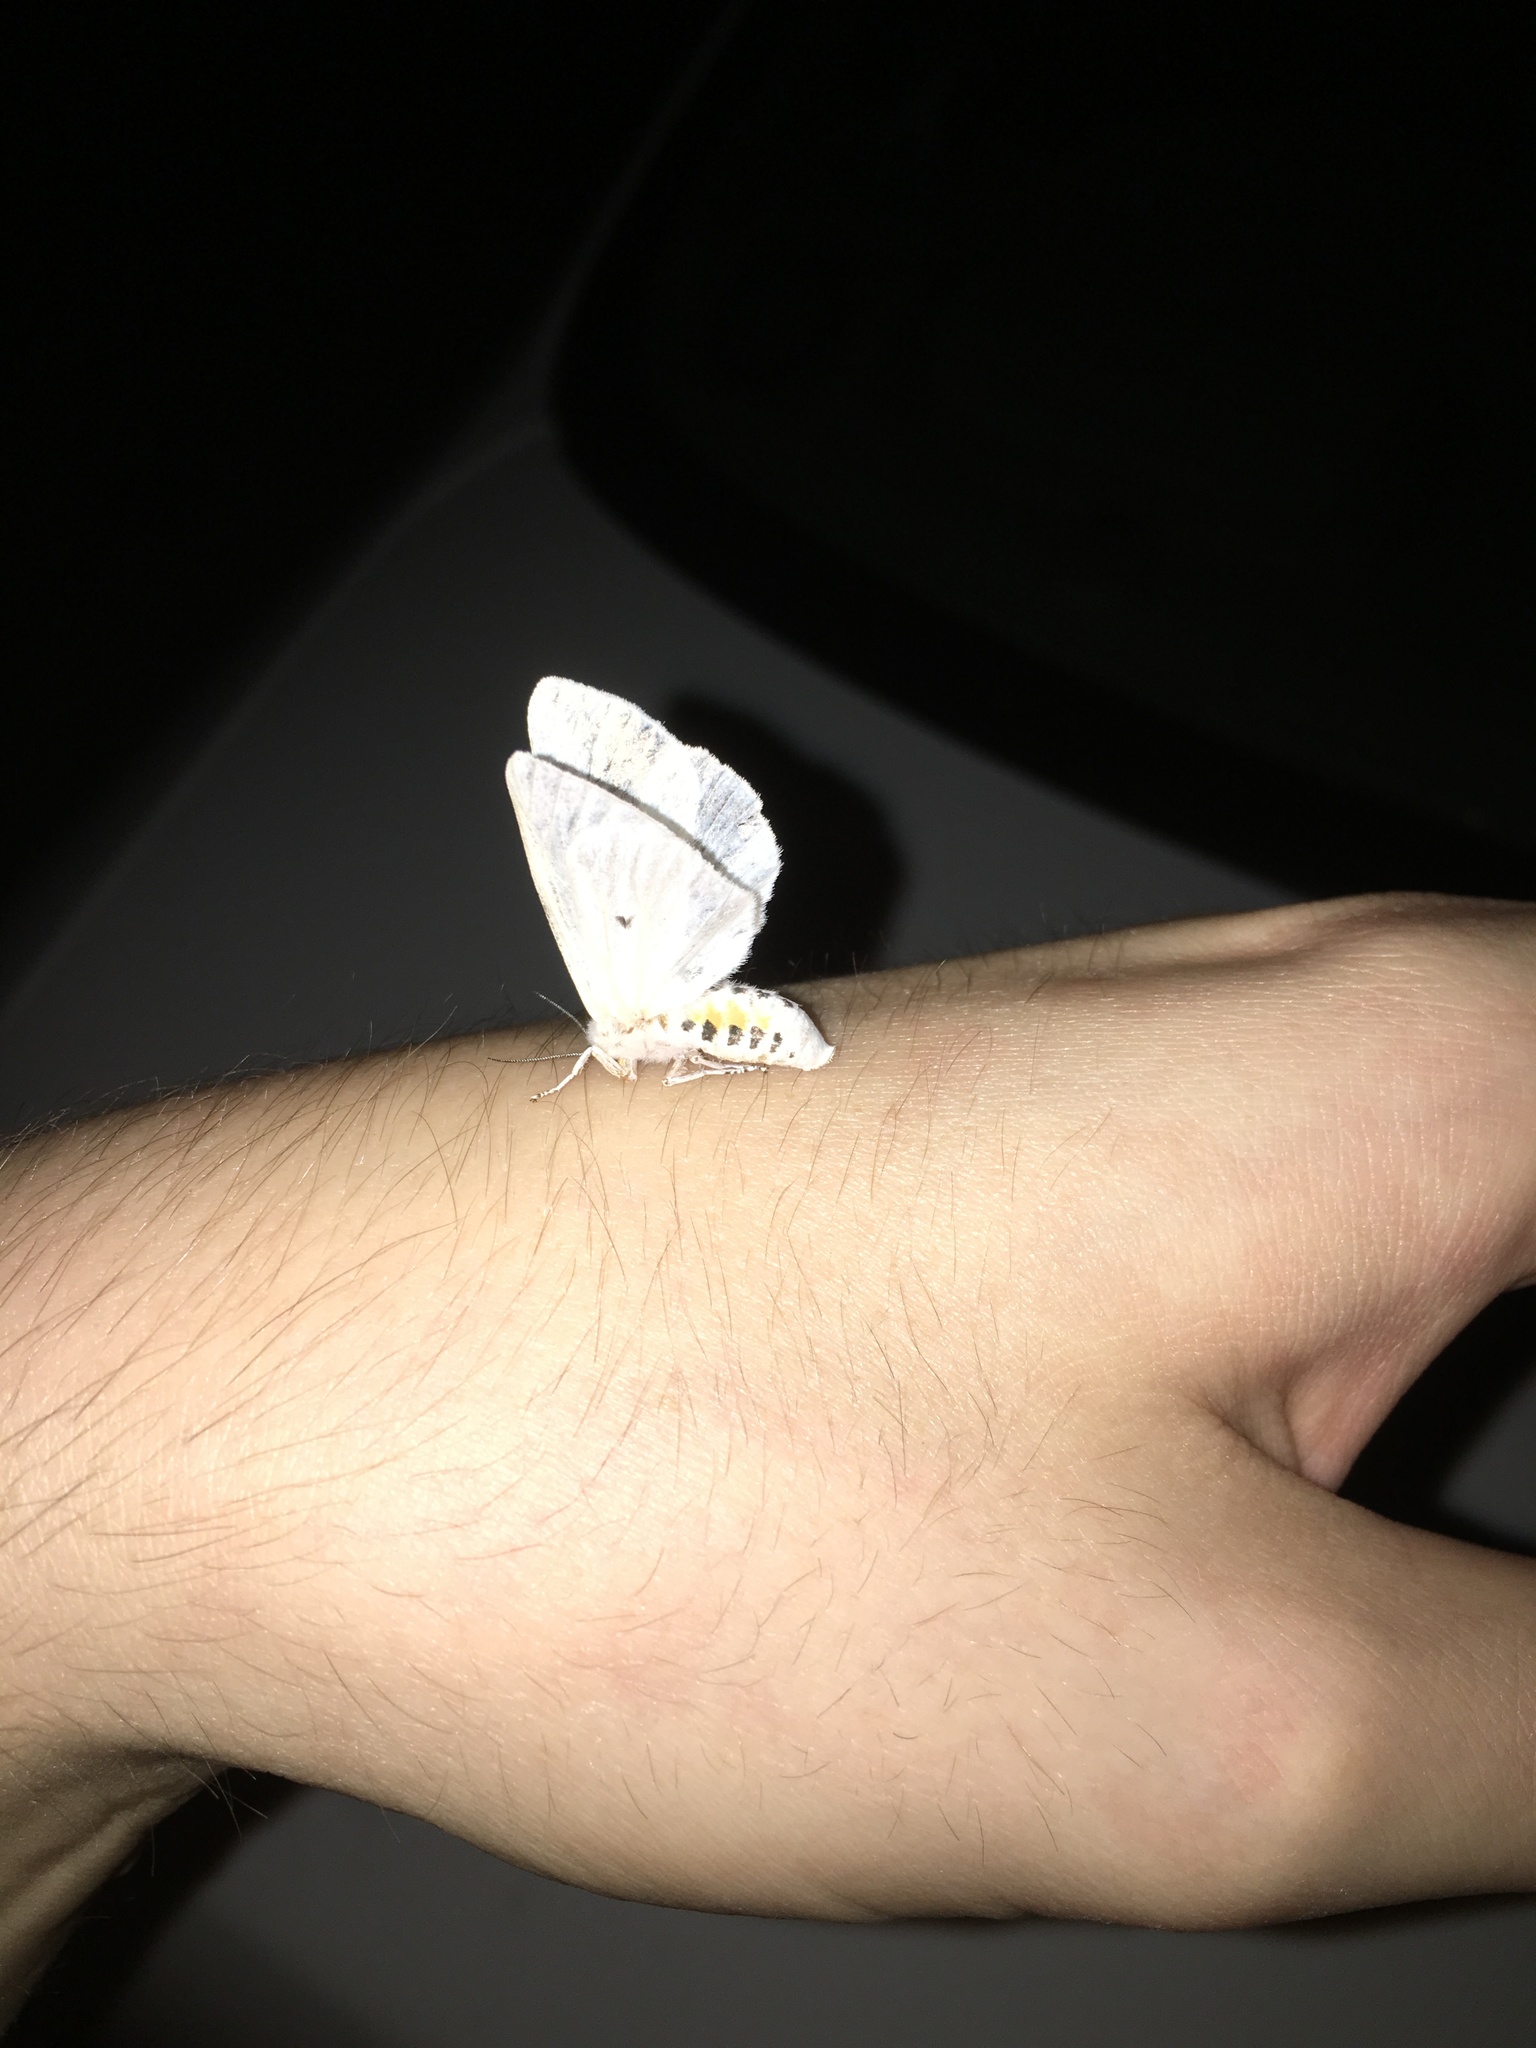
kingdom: Animalia
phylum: Arthropoda
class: Insecta
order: Lepidoptera
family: Erebidae
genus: Spilosoma
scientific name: Spilosoma virginica
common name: Virginia tiger moth
